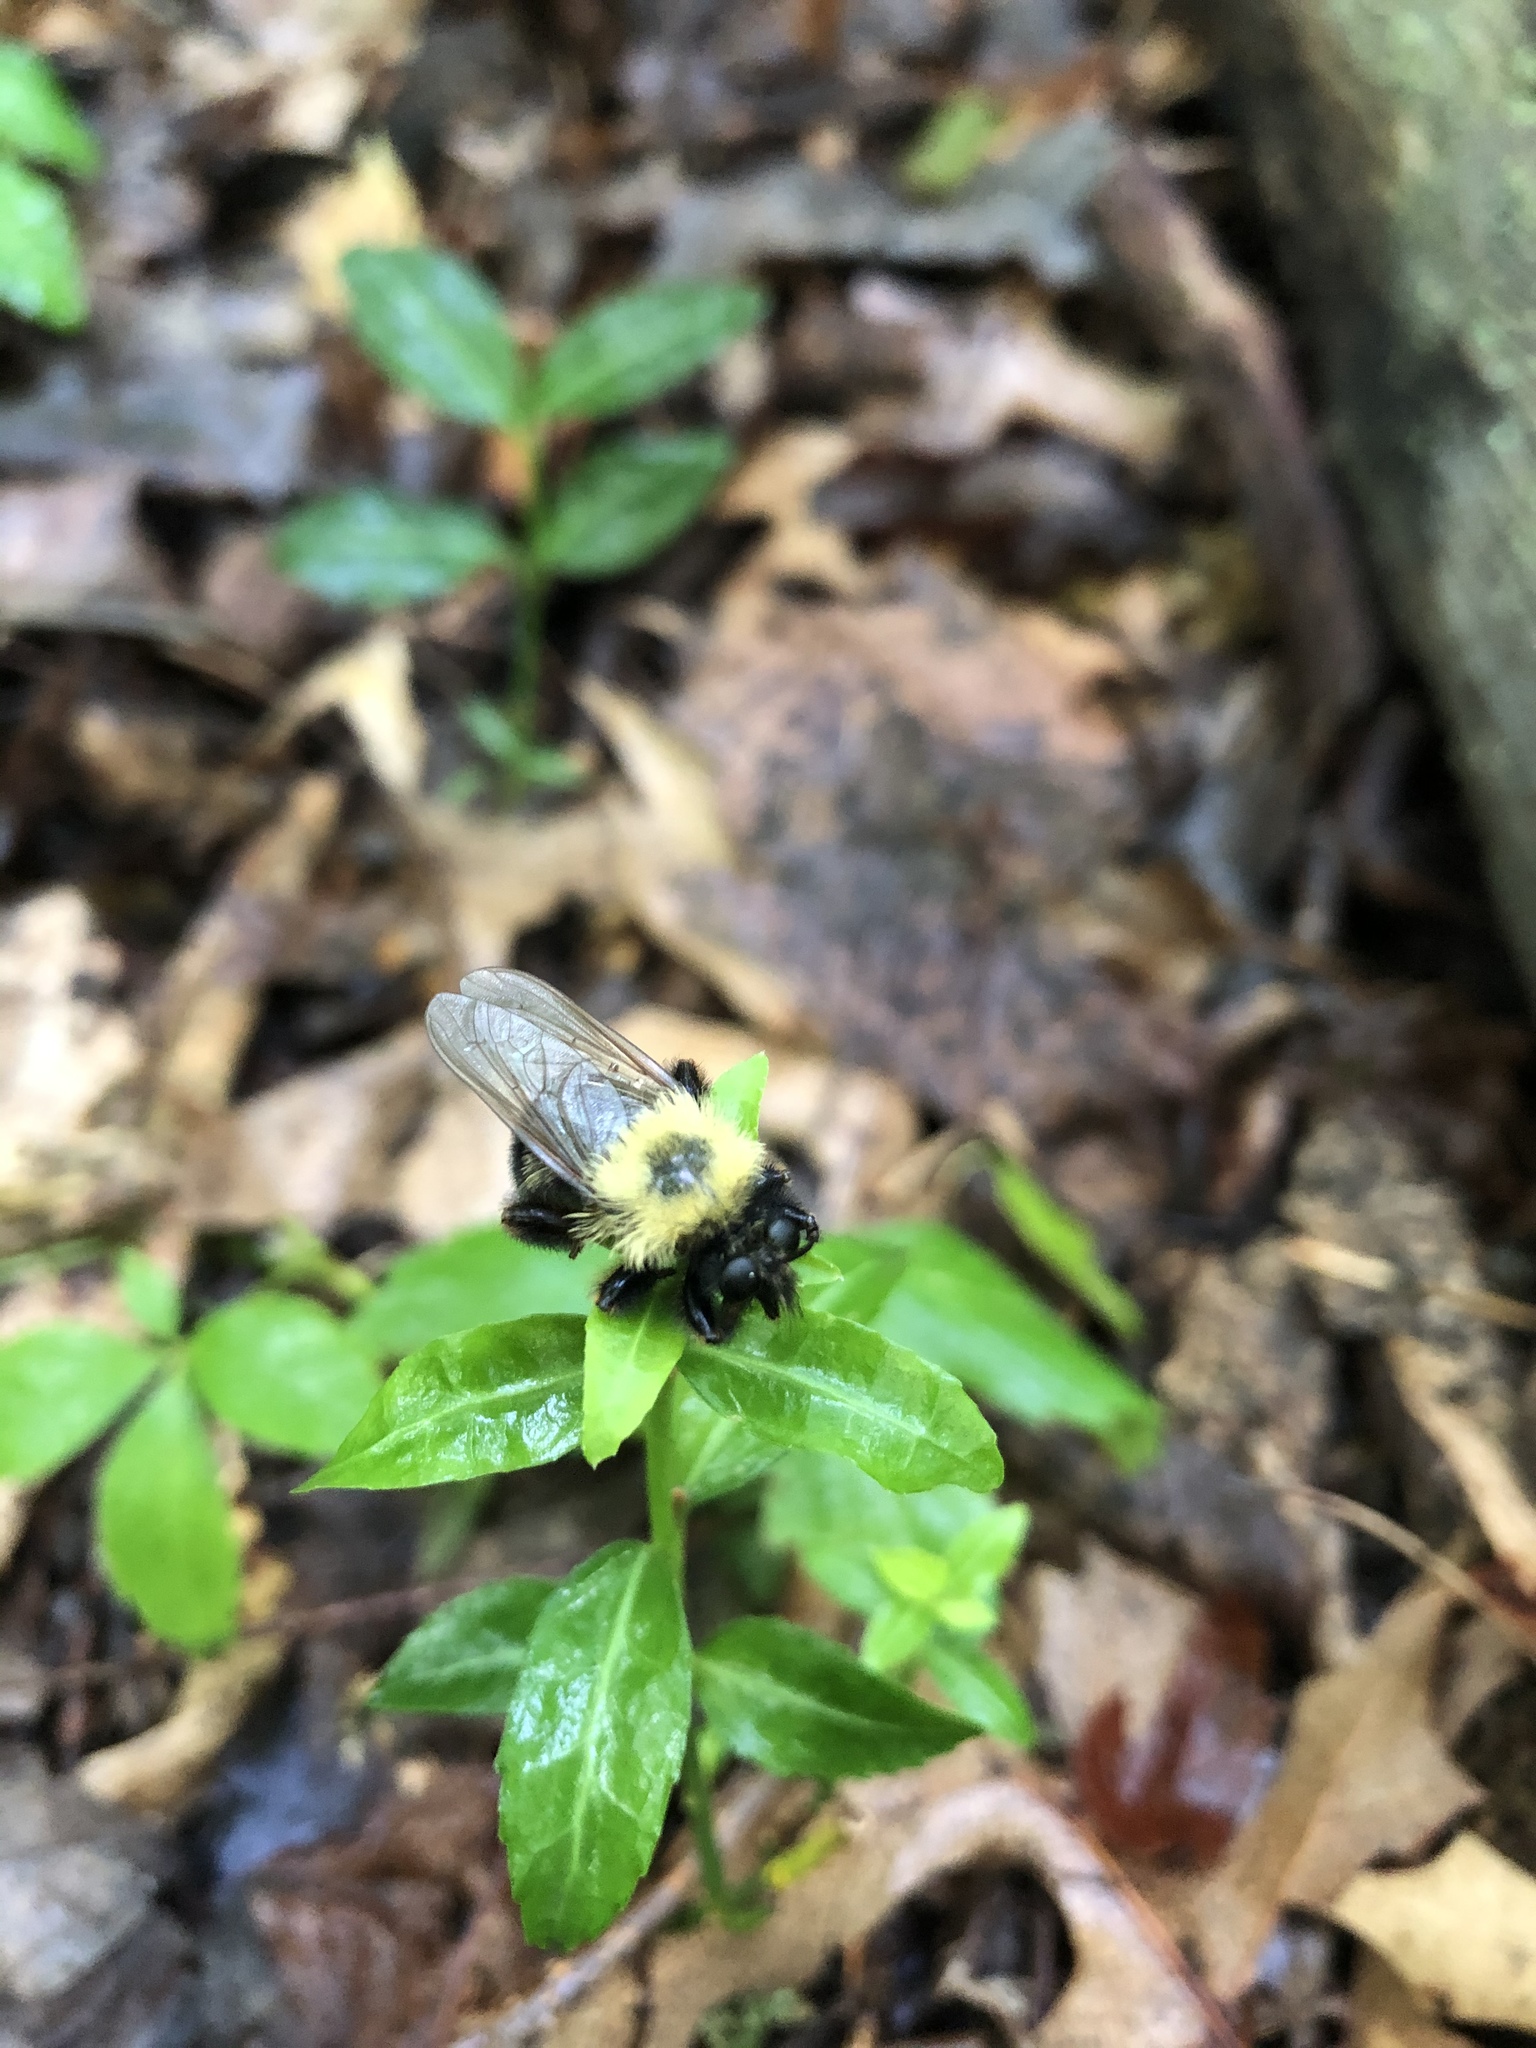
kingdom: Animalia
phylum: Arthropoda
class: Insecta
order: Diptera
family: Asilidae
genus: Laphria
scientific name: Laphria thoracica
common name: Bumble bee mimic robber fly
